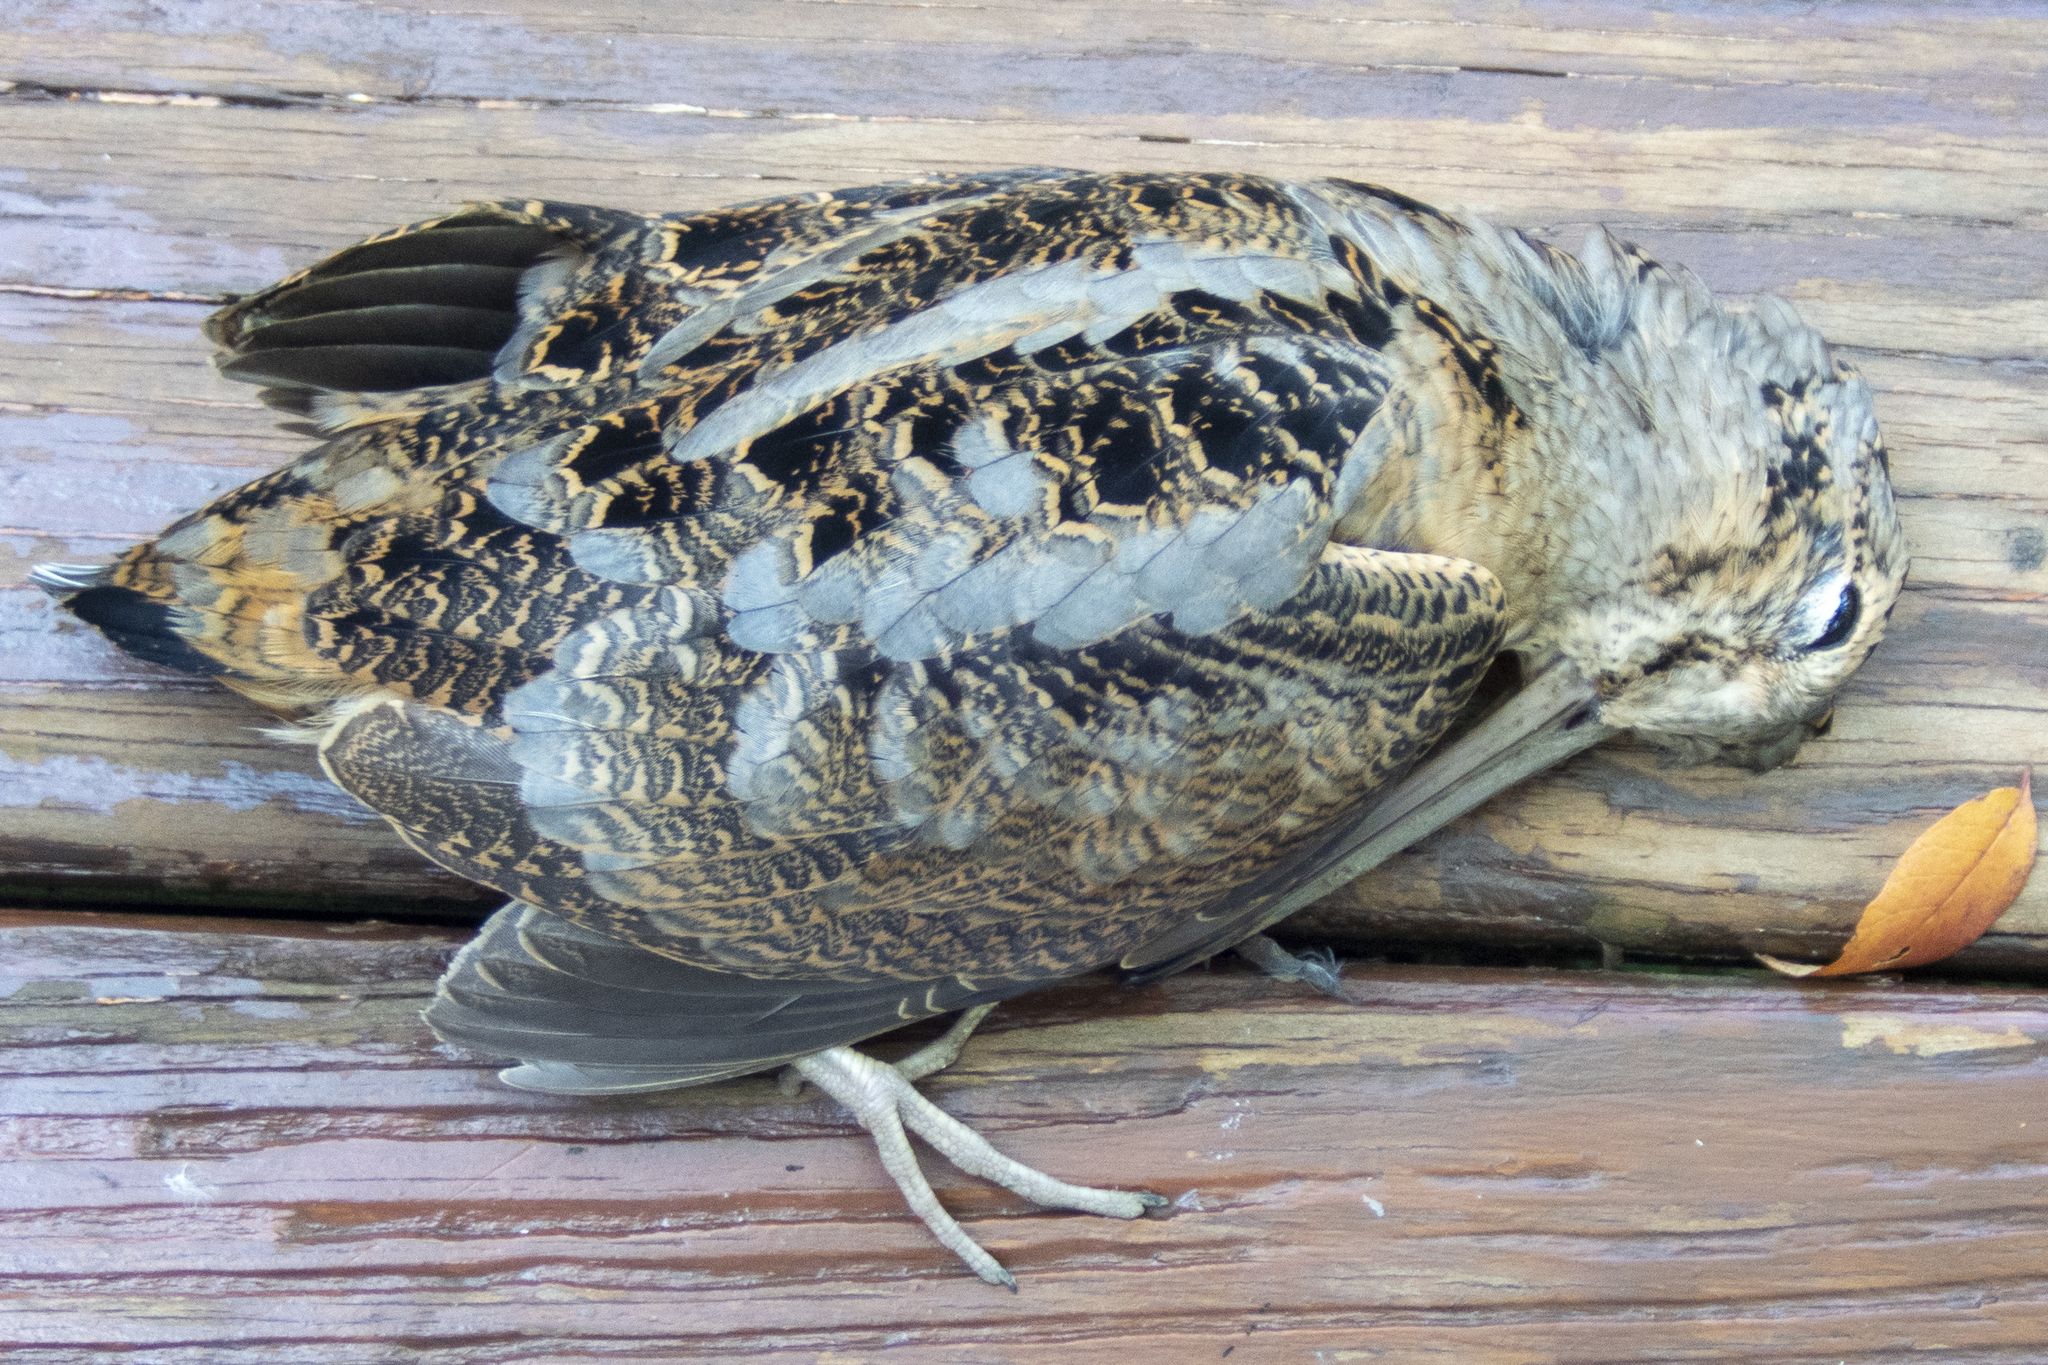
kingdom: Animalia
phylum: Chordata
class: Aves
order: Charadriiformes
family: Scolopacidae
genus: Scolopax
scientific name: Scolopax minor
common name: American woodcock
